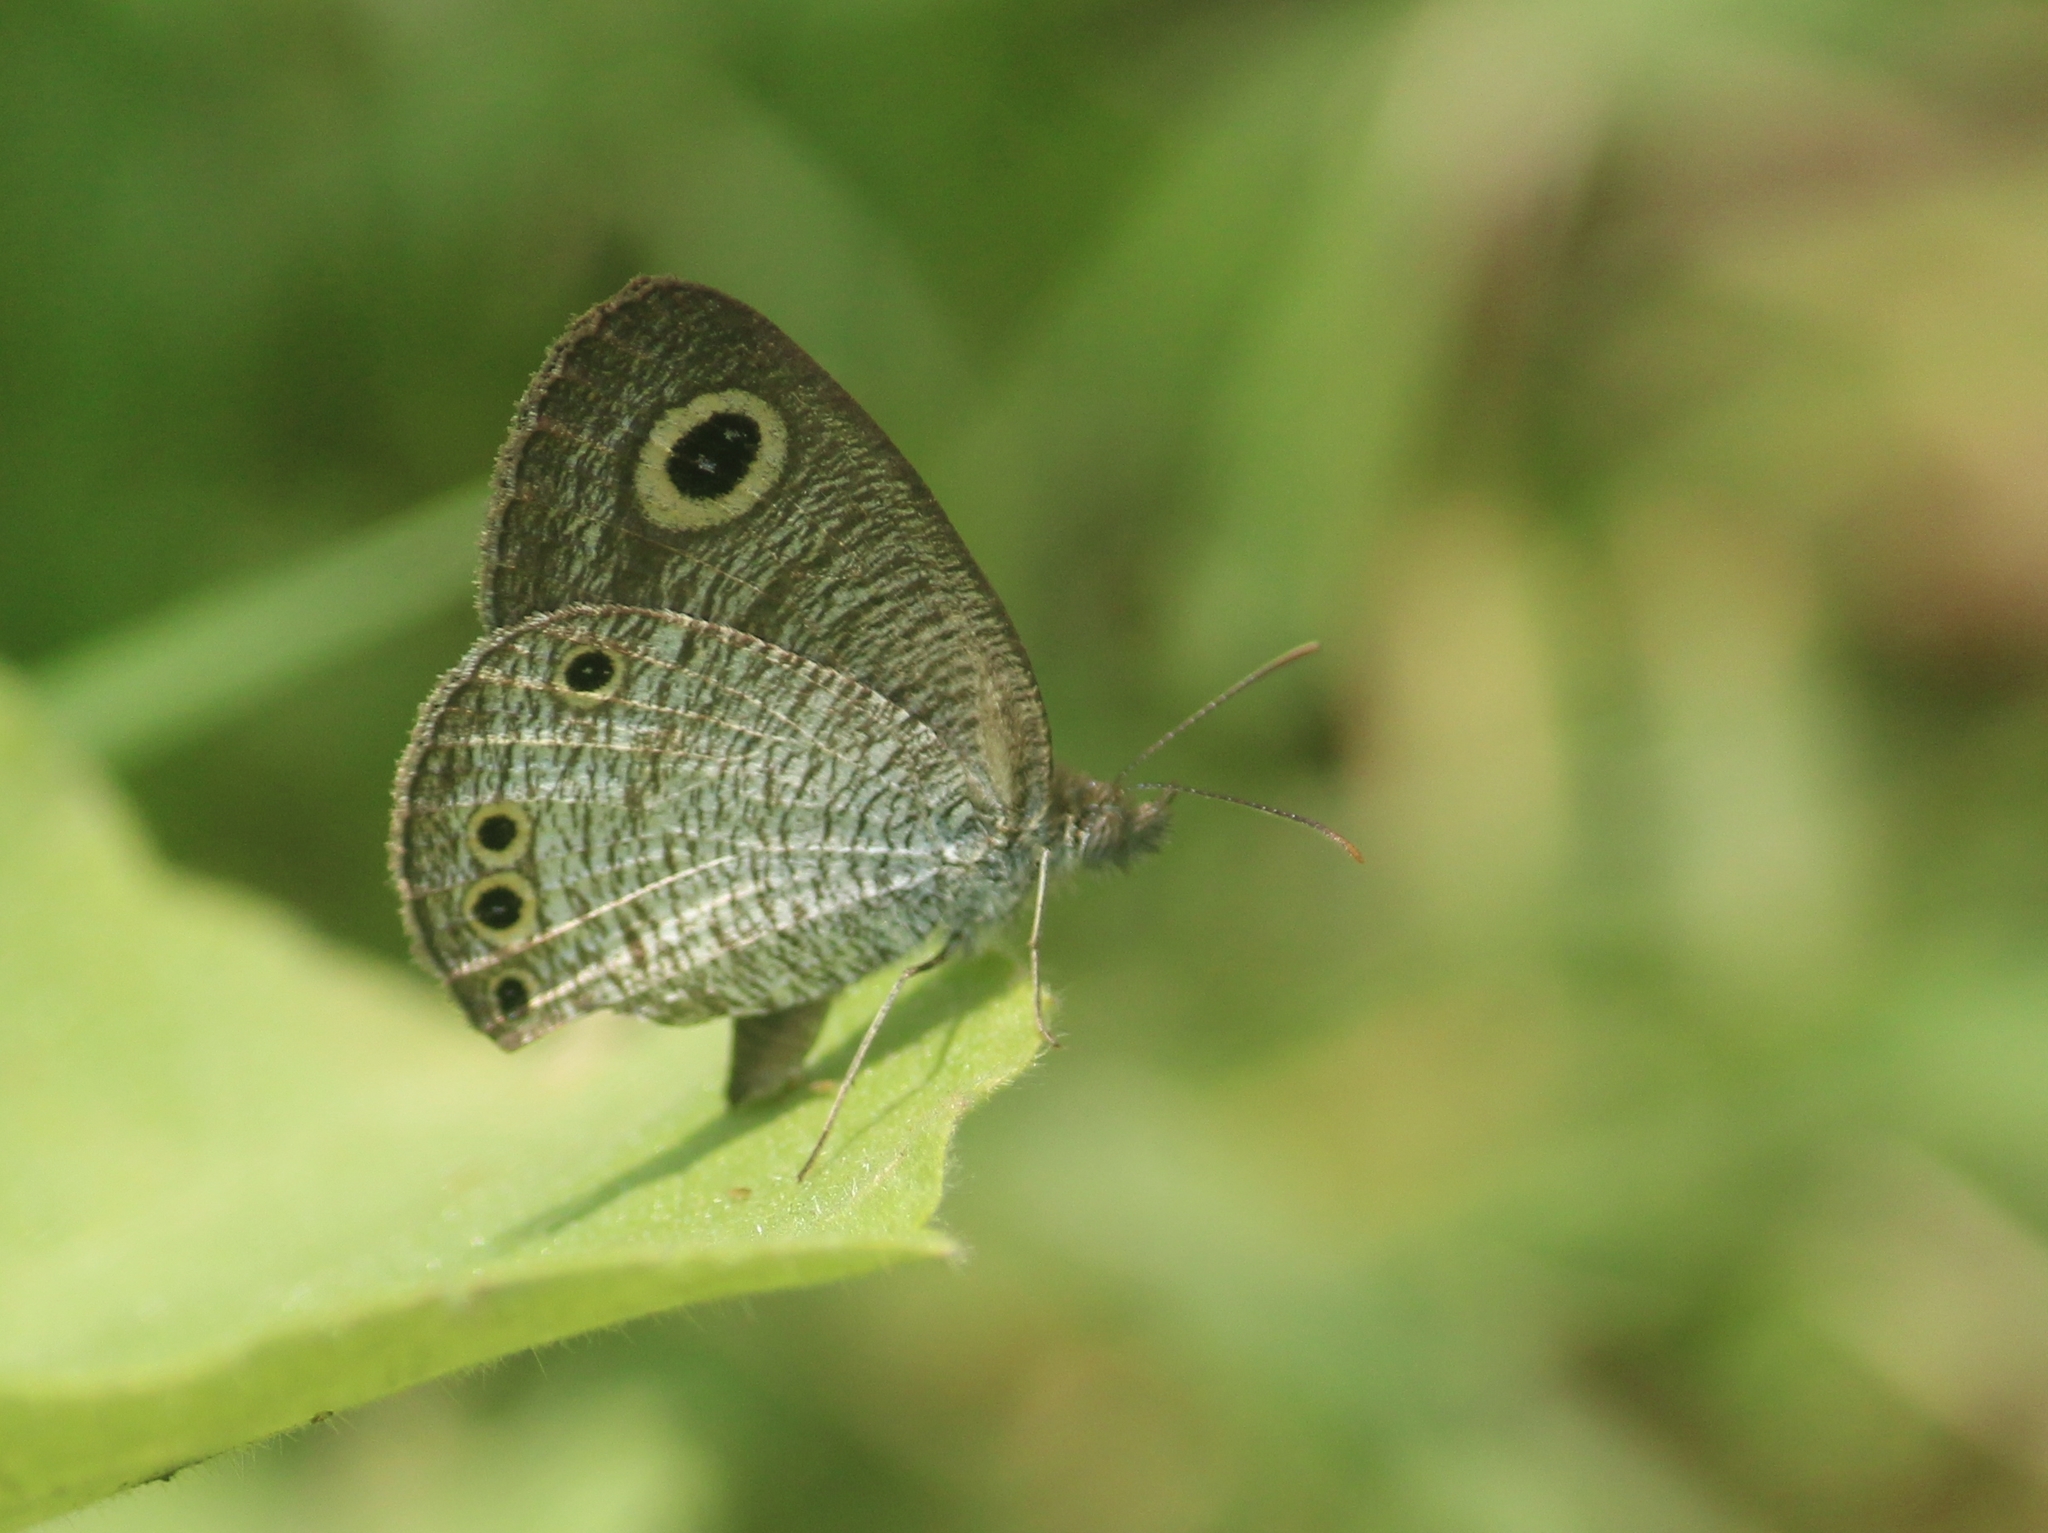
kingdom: Animalia
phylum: Arthropoda
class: Insecta
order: Lepidoptera
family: Nymphalidae
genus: Ypthima
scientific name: Ypthima huebneri
